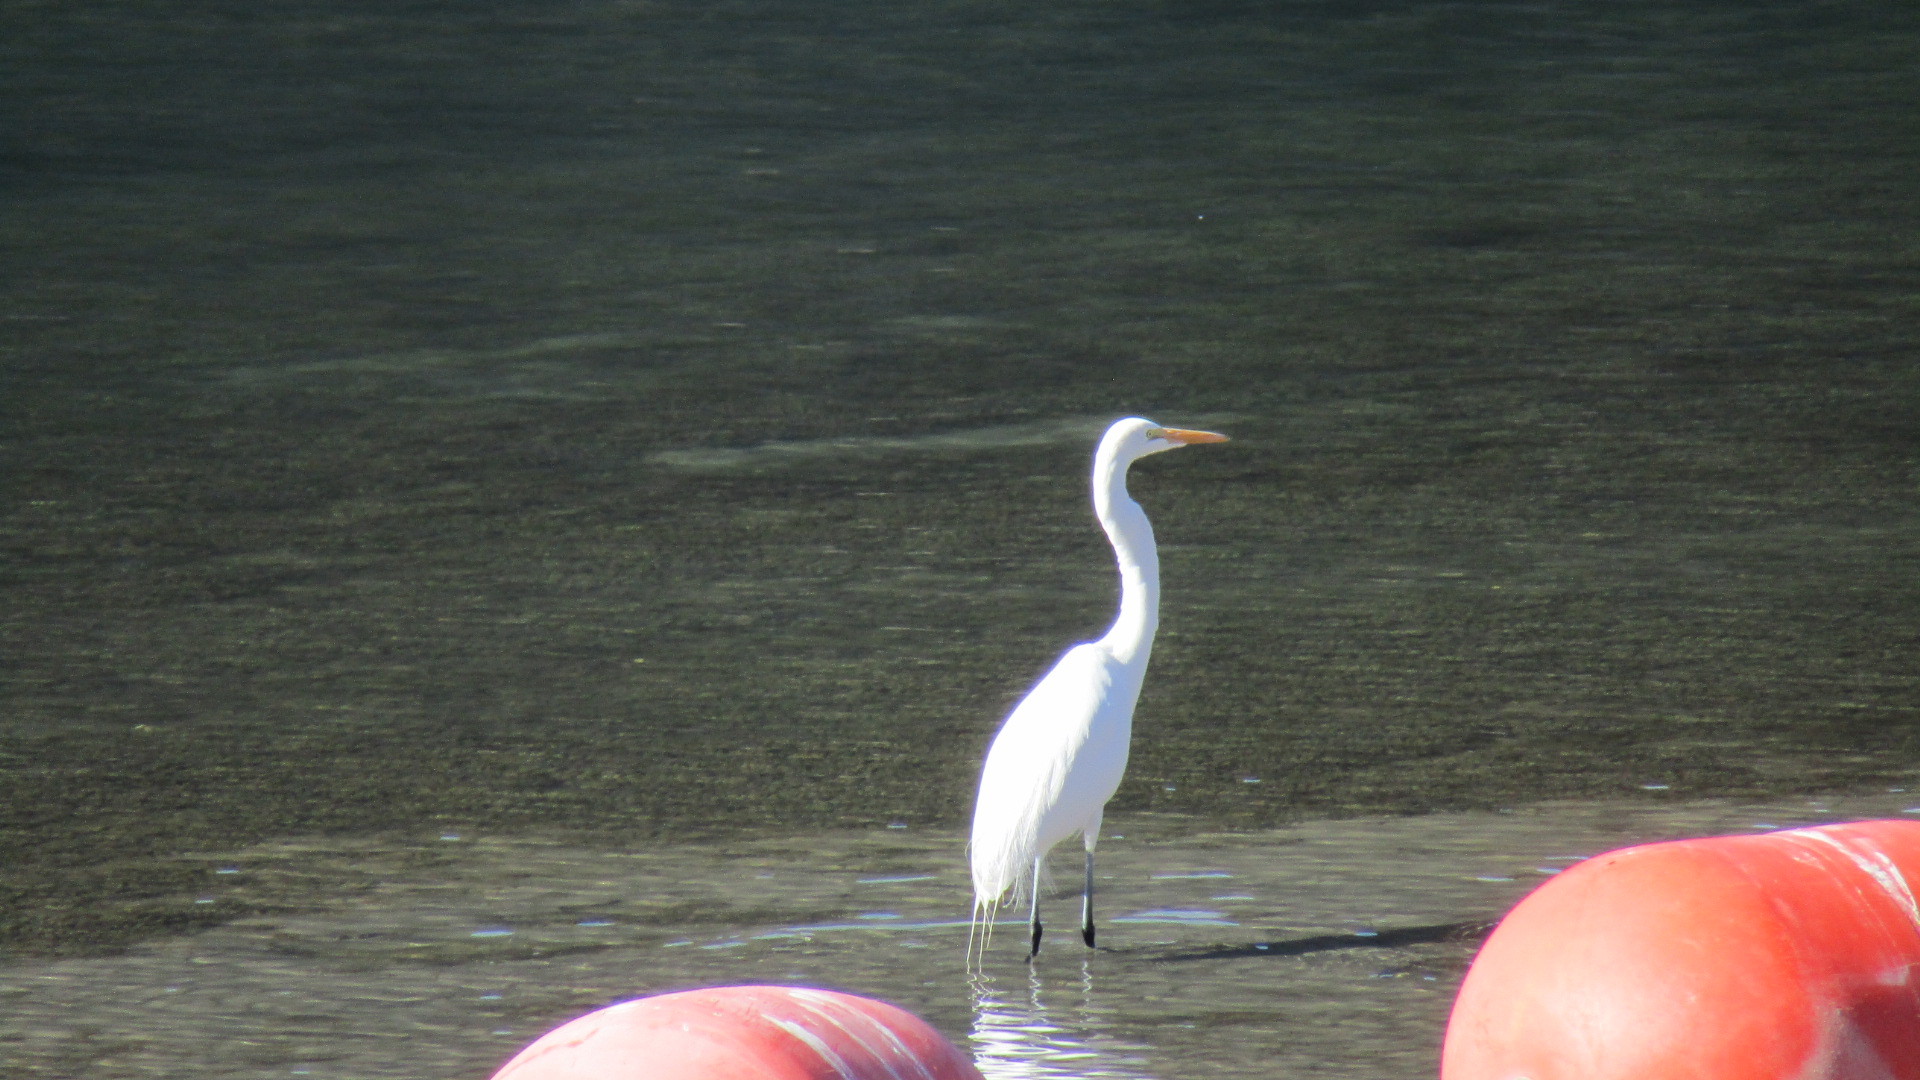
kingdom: Animalia
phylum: Chordata
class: Aves
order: Pelecaniformes
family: Ardeidae
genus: Ardea
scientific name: Ardea alba
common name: Great egret
